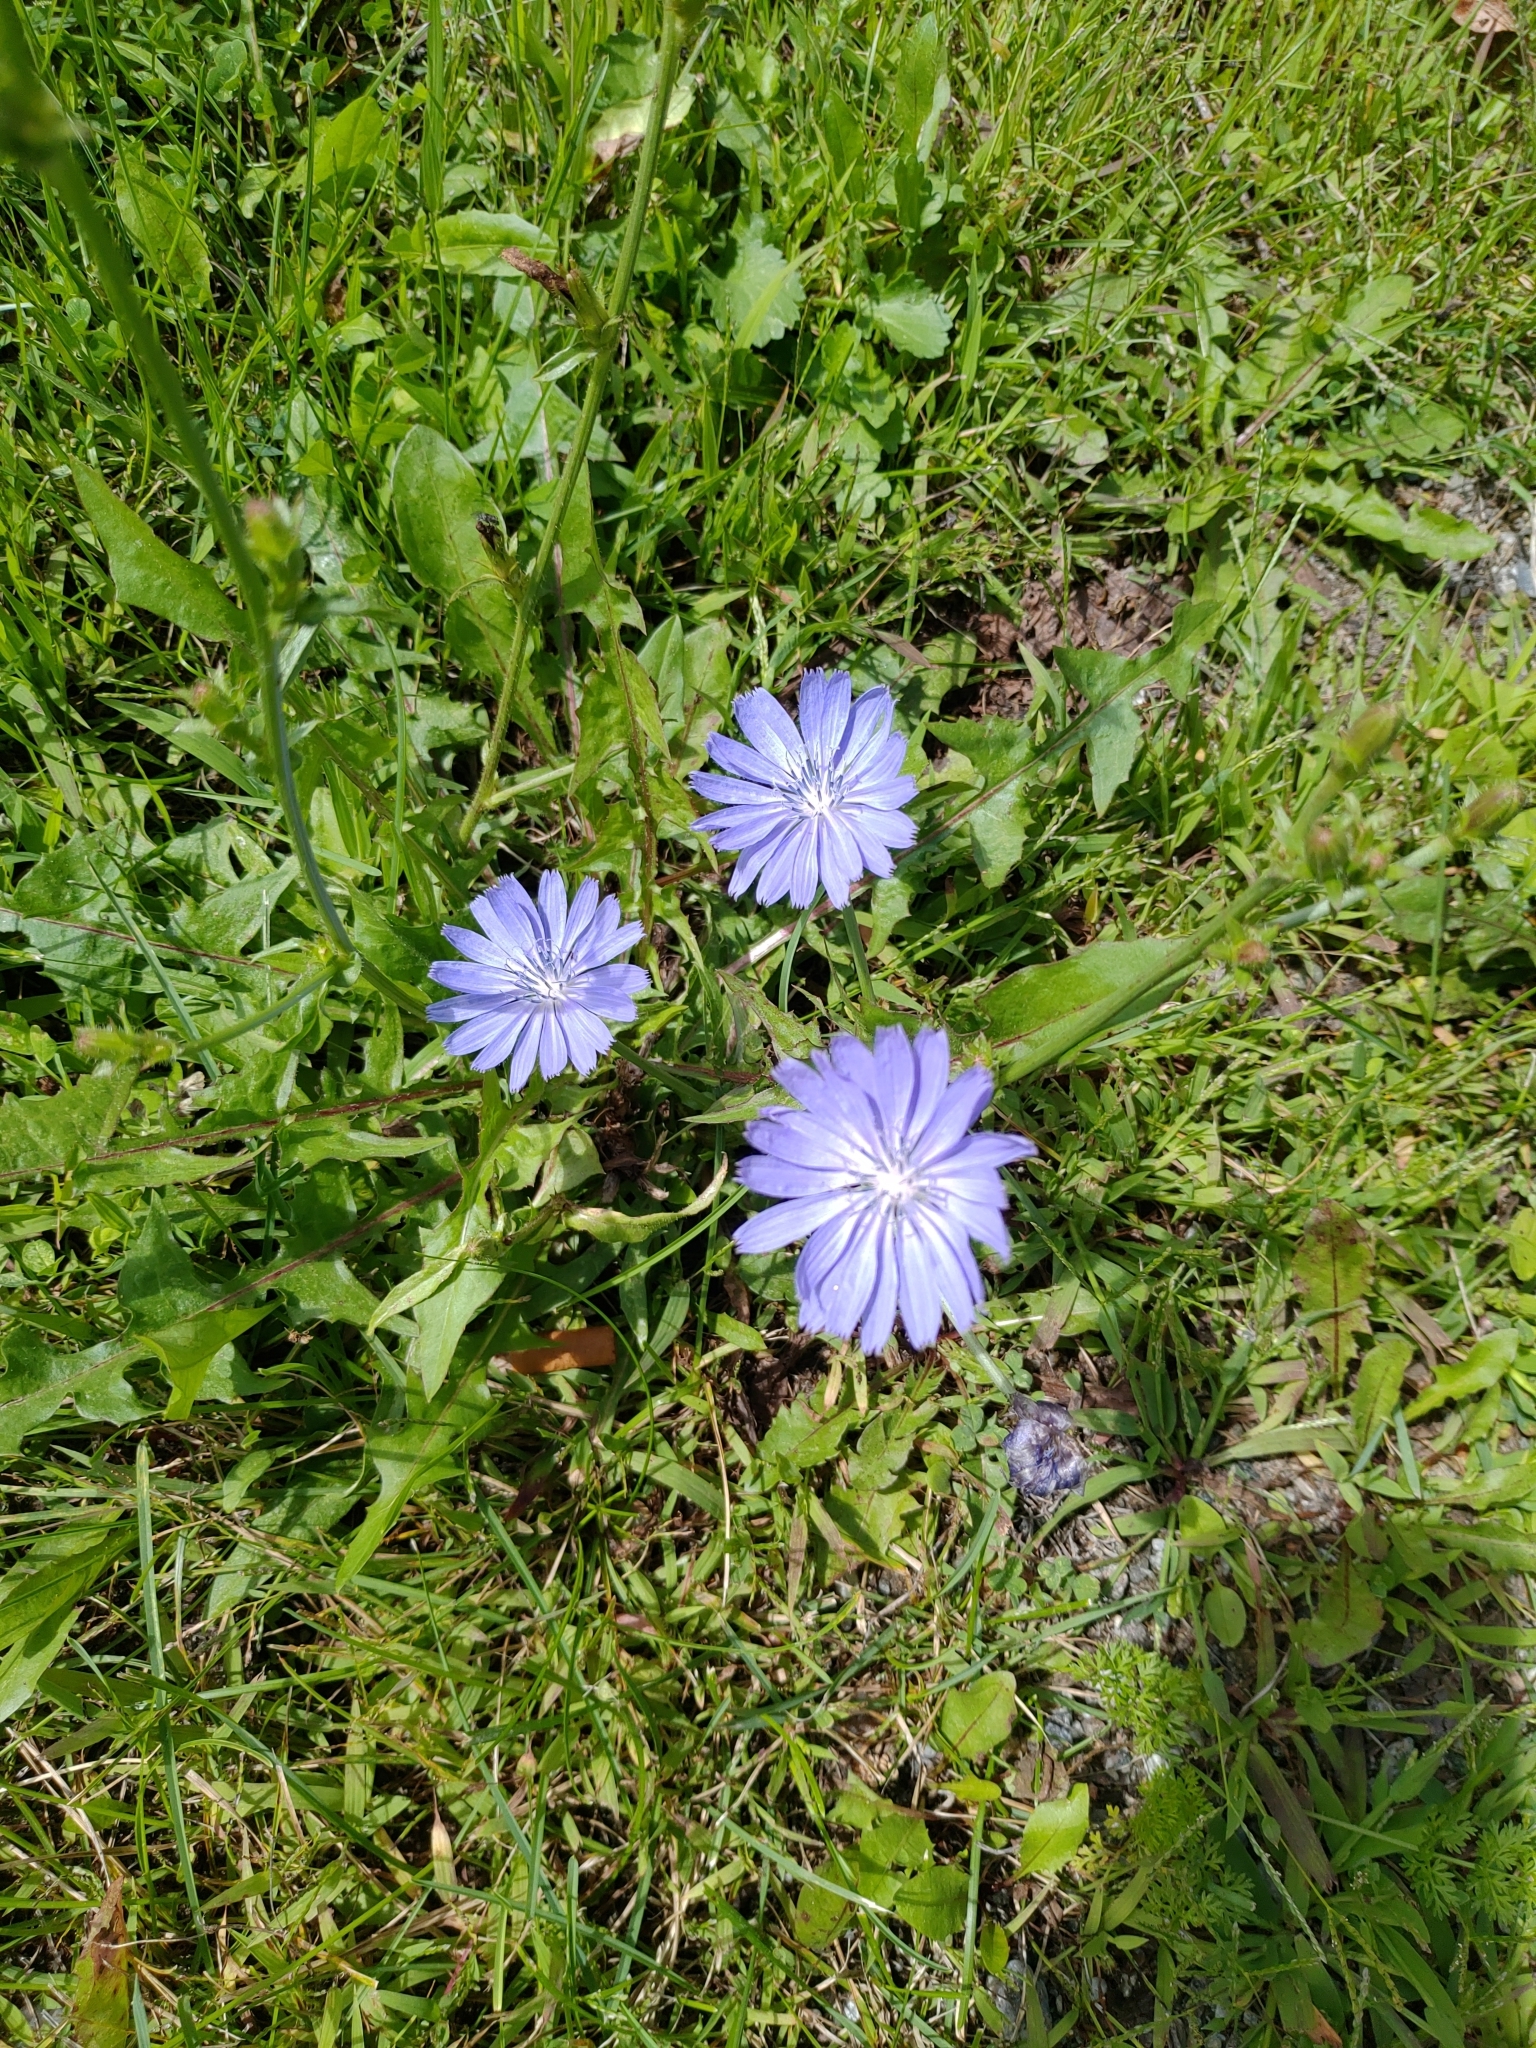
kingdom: Plantae
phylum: Tracheophyta
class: Magnoliopsida
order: Asterales
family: Asteraceae
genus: Cichorium
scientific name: Cichorium intybus
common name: Chicory
